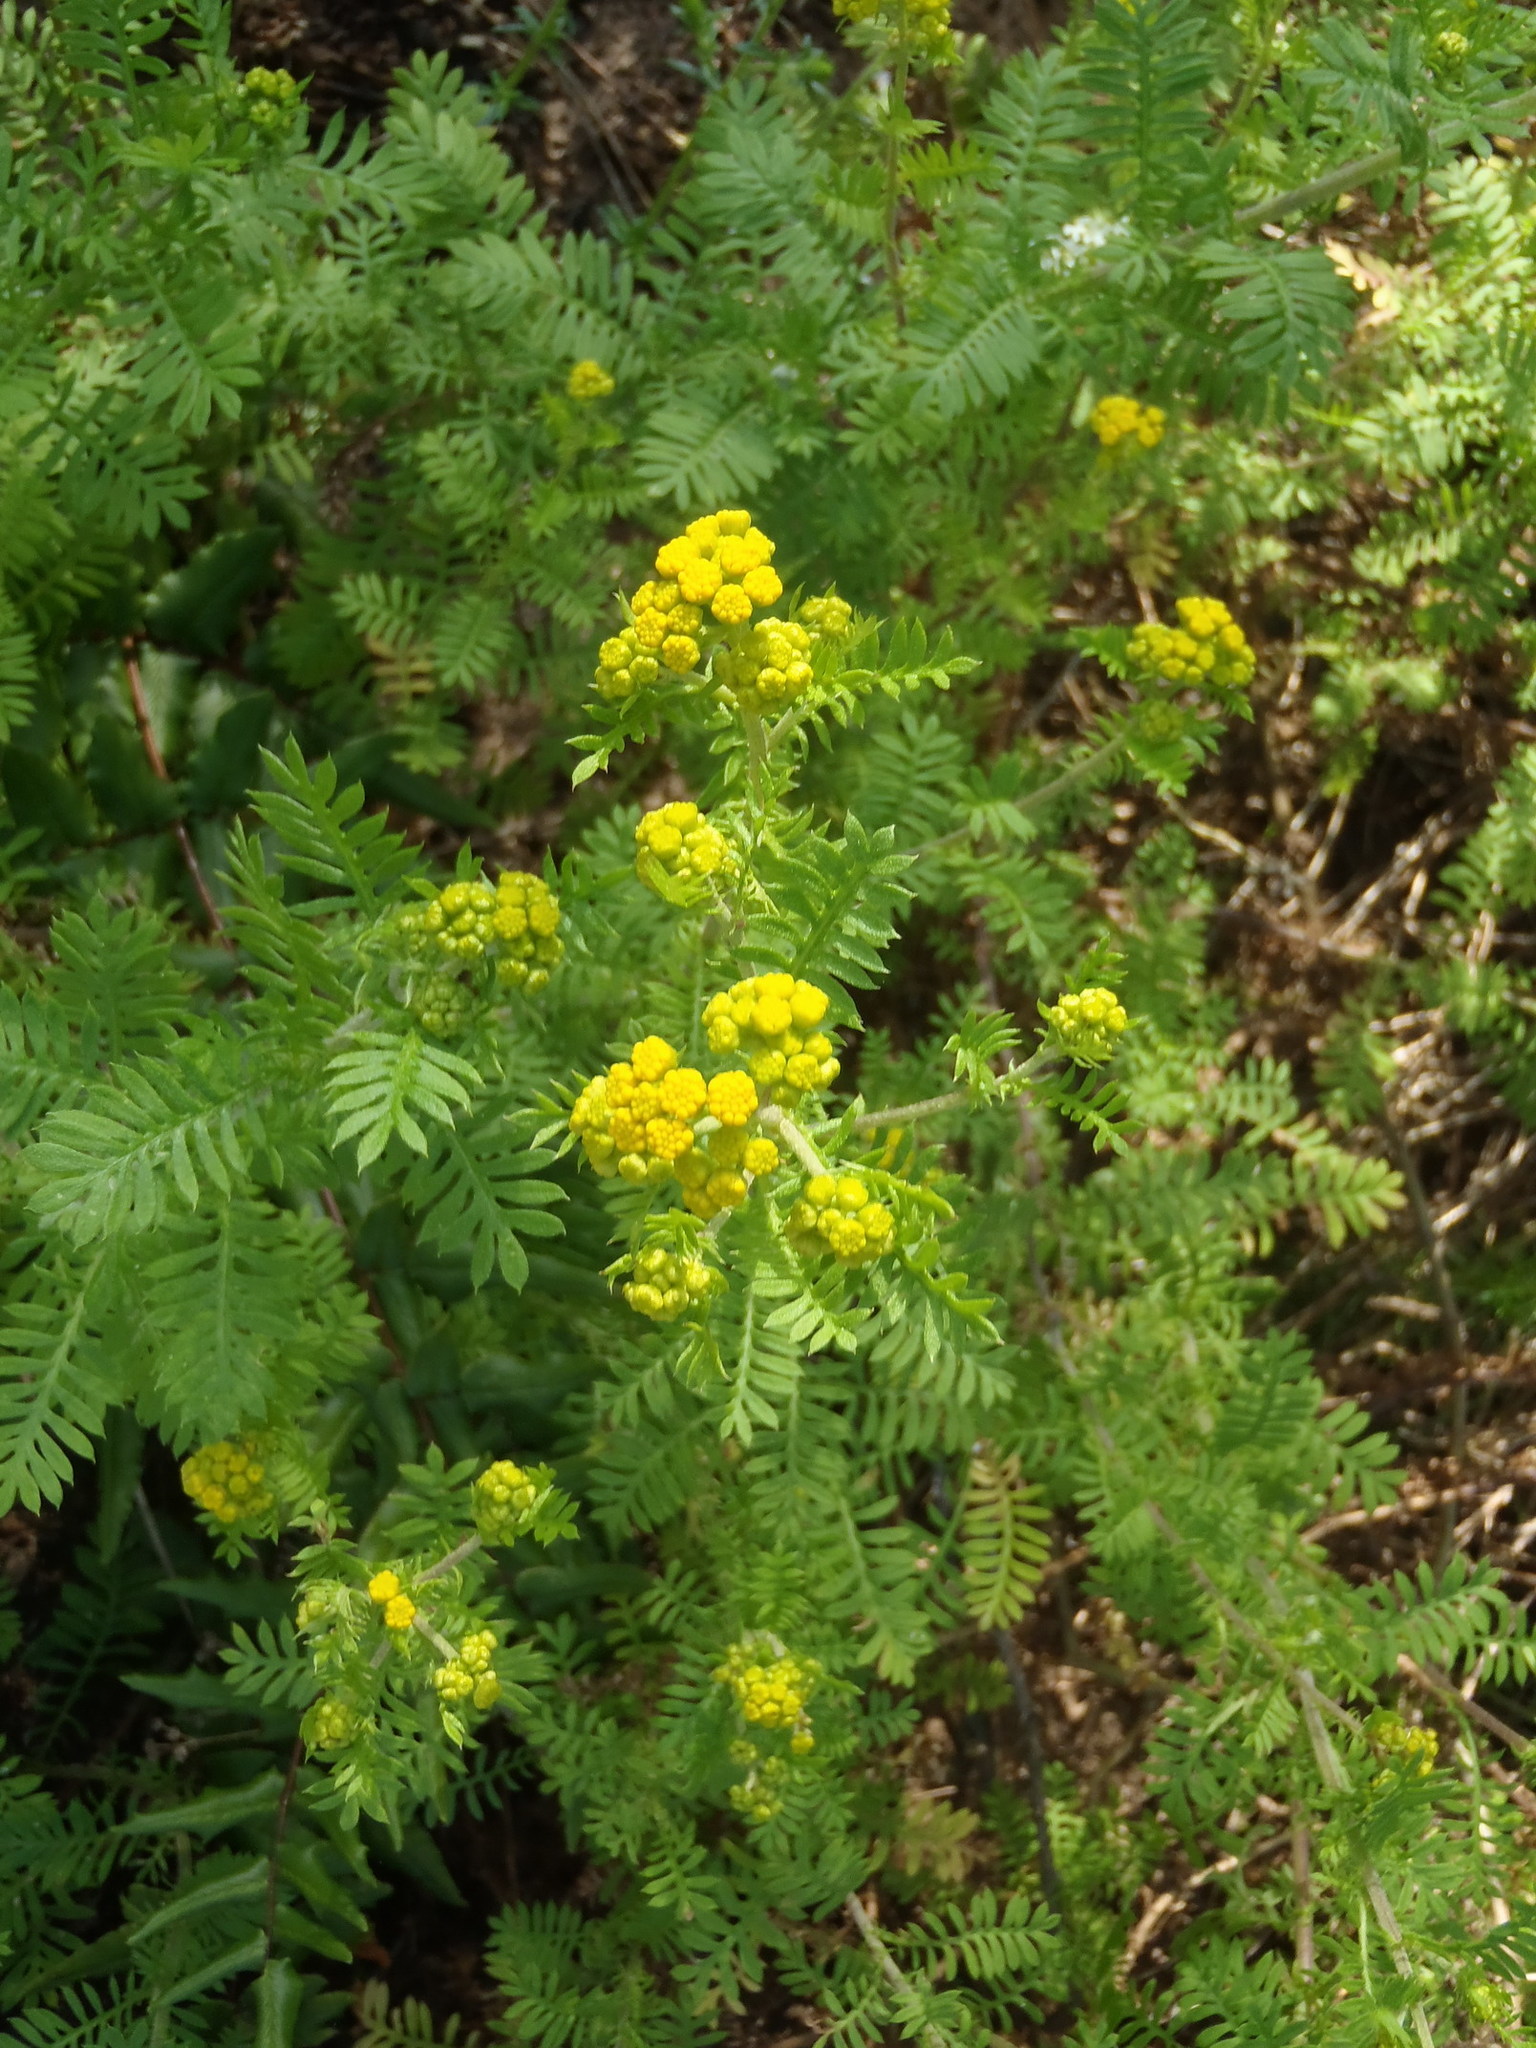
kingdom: Plantae
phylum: Tracheophyta
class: Magnoliopsida
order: Asterales
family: Asteraceae
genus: Hippia
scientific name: Hippia frutescens
